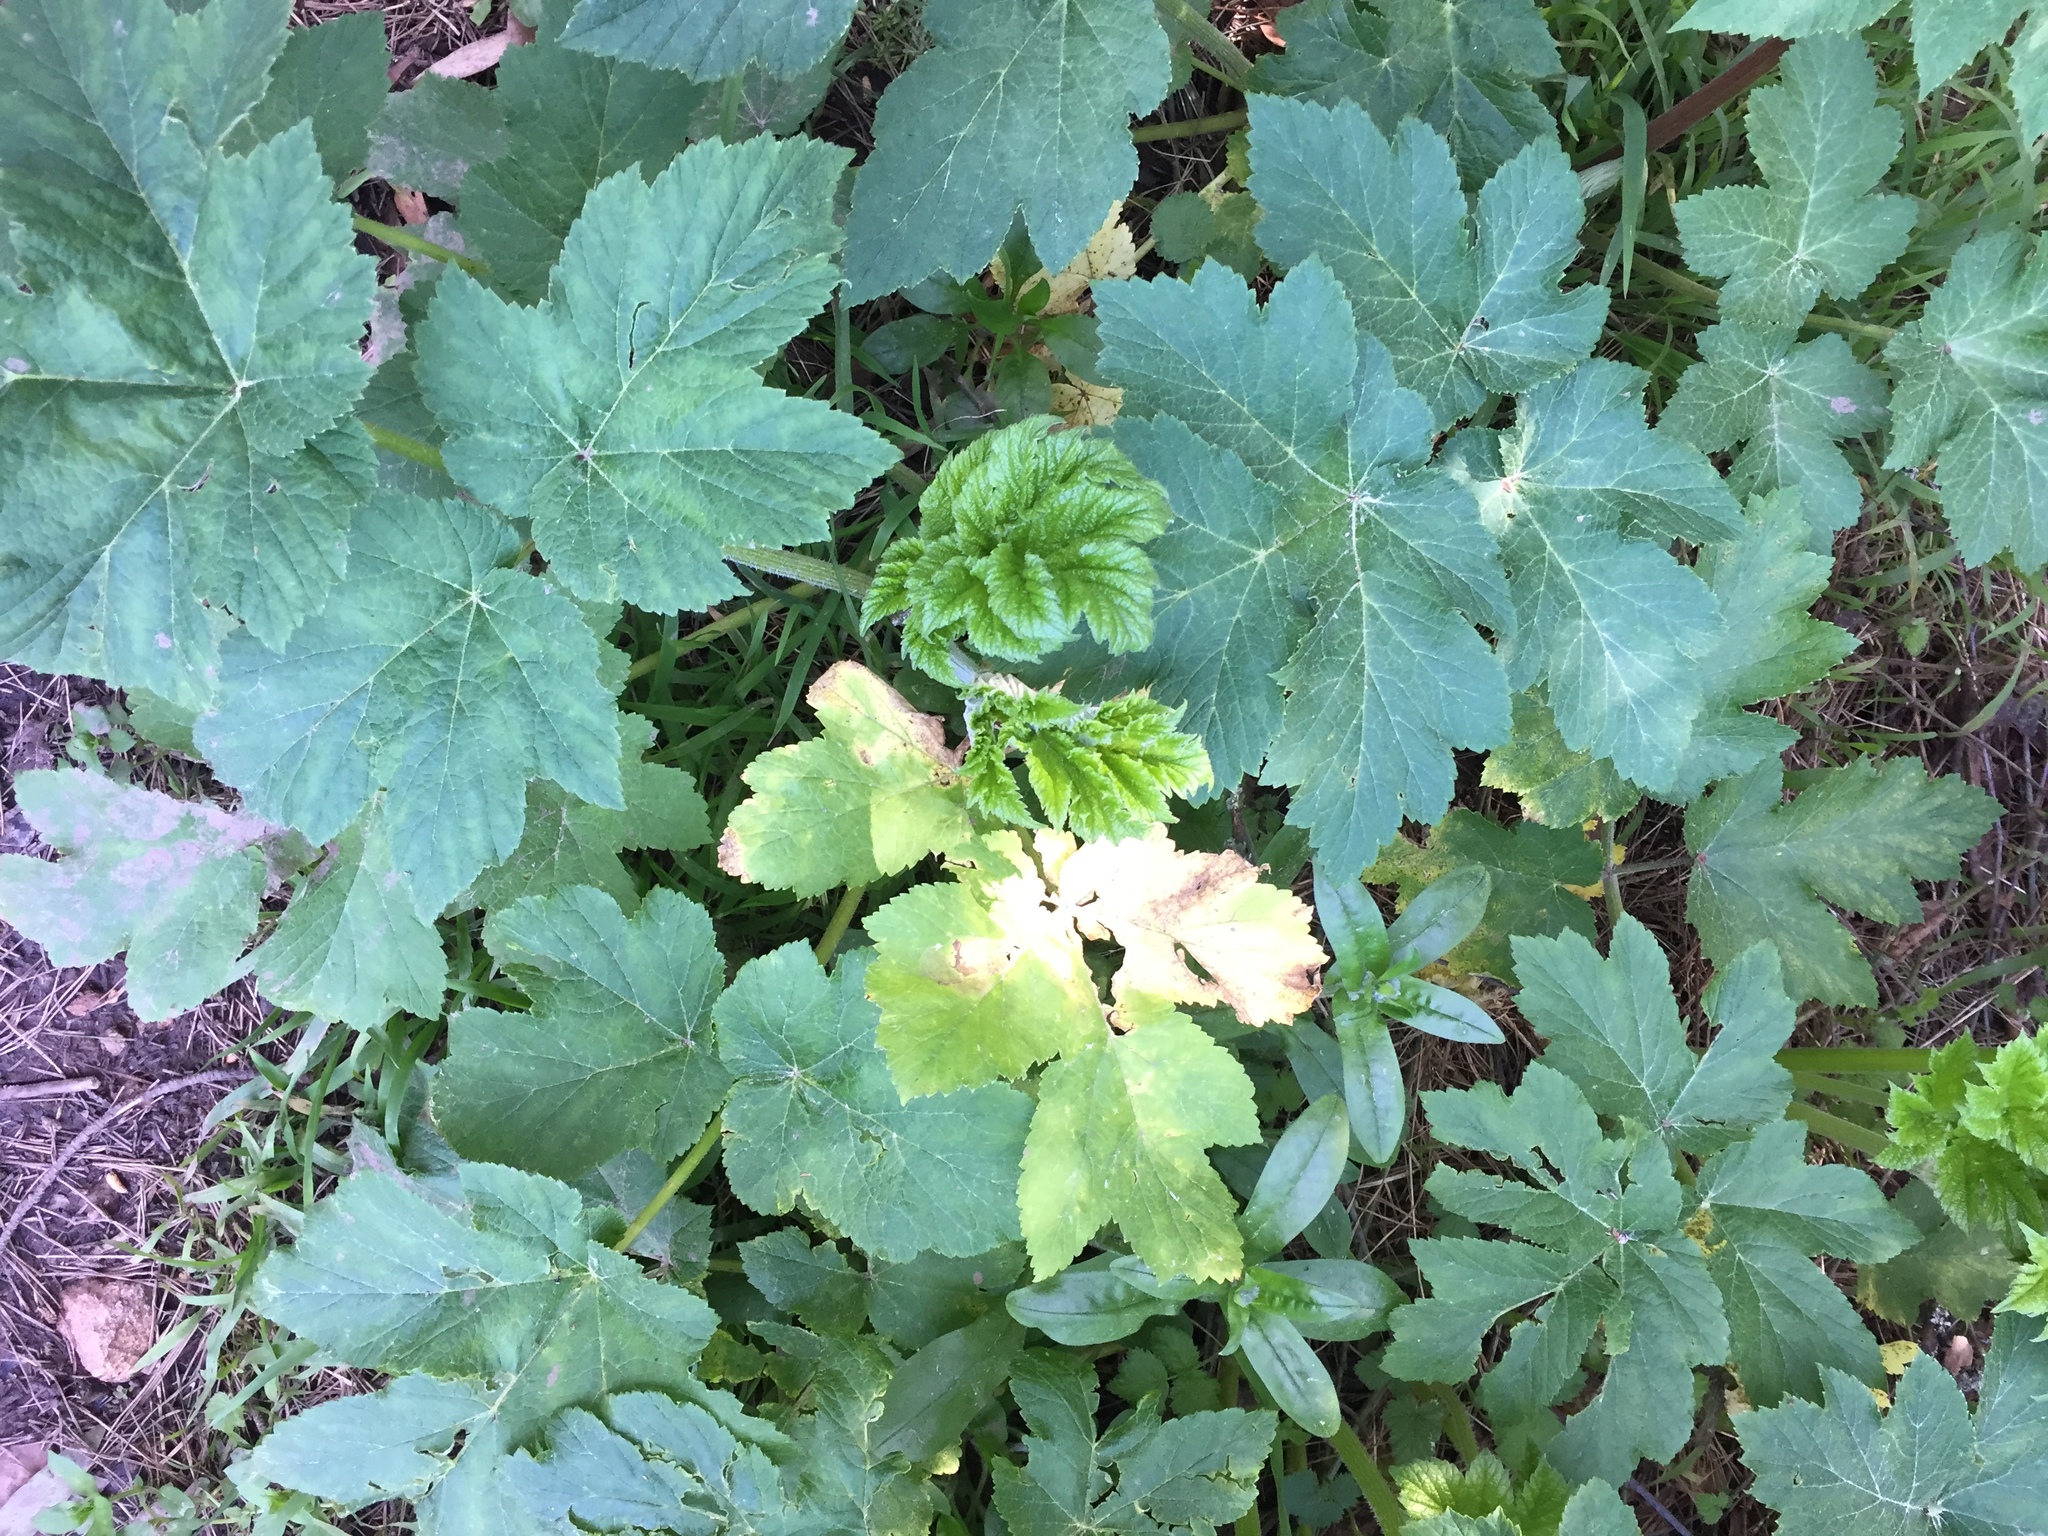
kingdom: Plantae
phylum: Tracheophyta
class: Magnoliopsida
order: Apiales
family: Apiaceae
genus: Heracleum
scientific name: Heracleum maximum
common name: American cow parsnip
